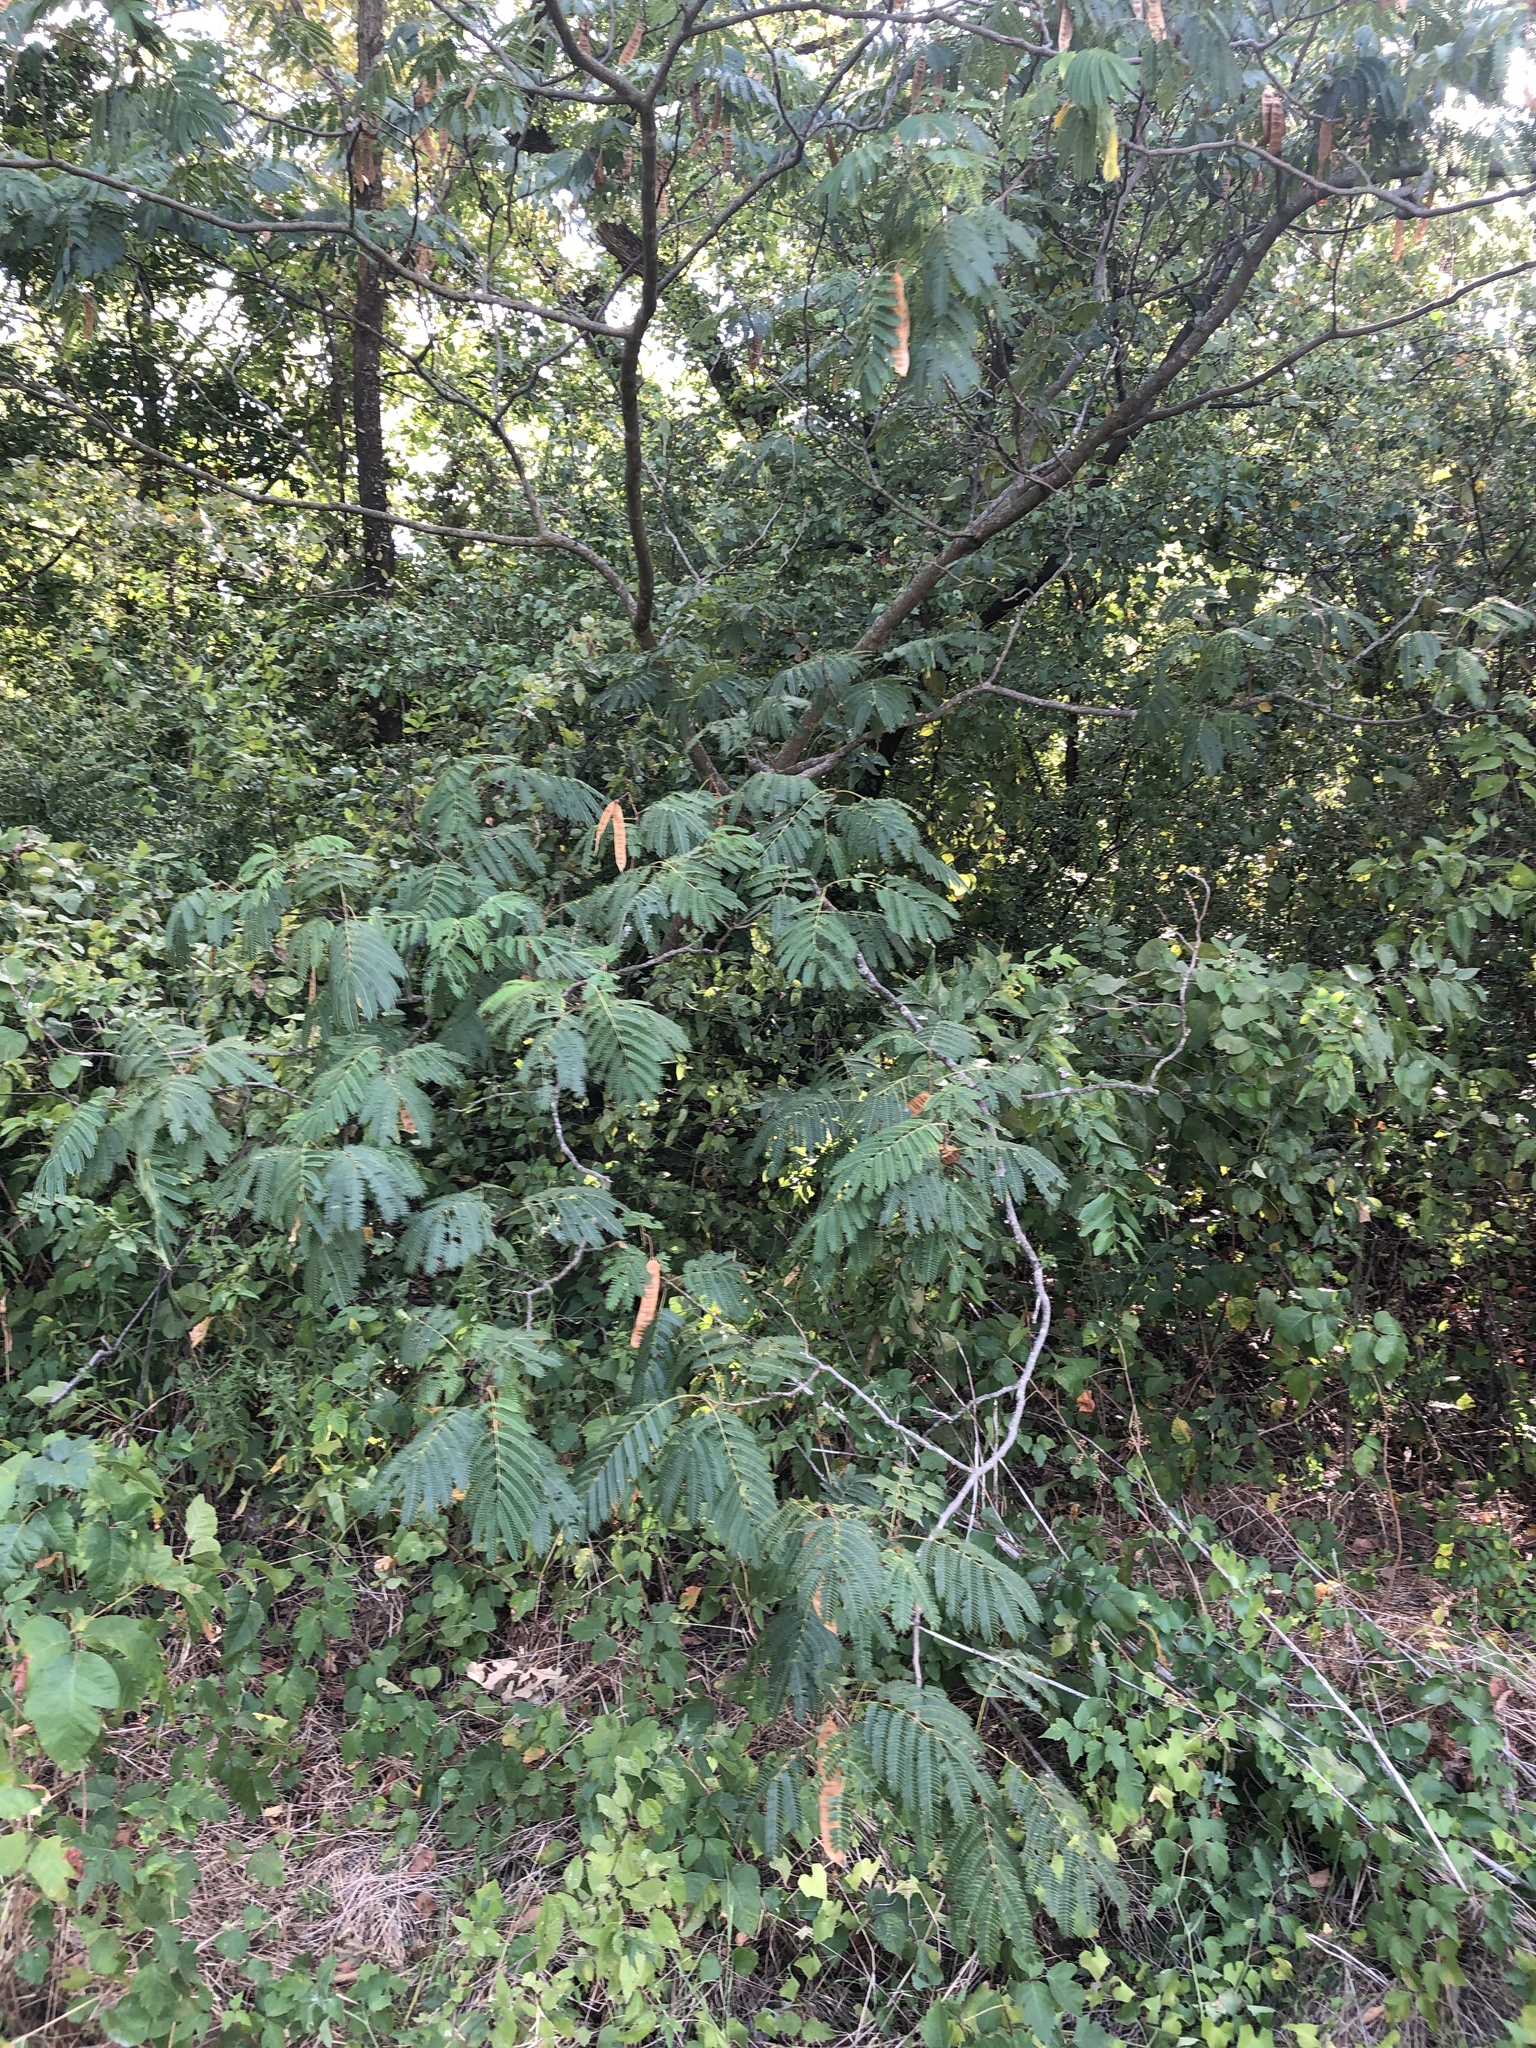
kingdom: Plantae
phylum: Tracheophyta
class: Magnoliopsida
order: Fabales
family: Fabaceae
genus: Albizia
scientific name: Albizia julibrissin
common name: Silktree
